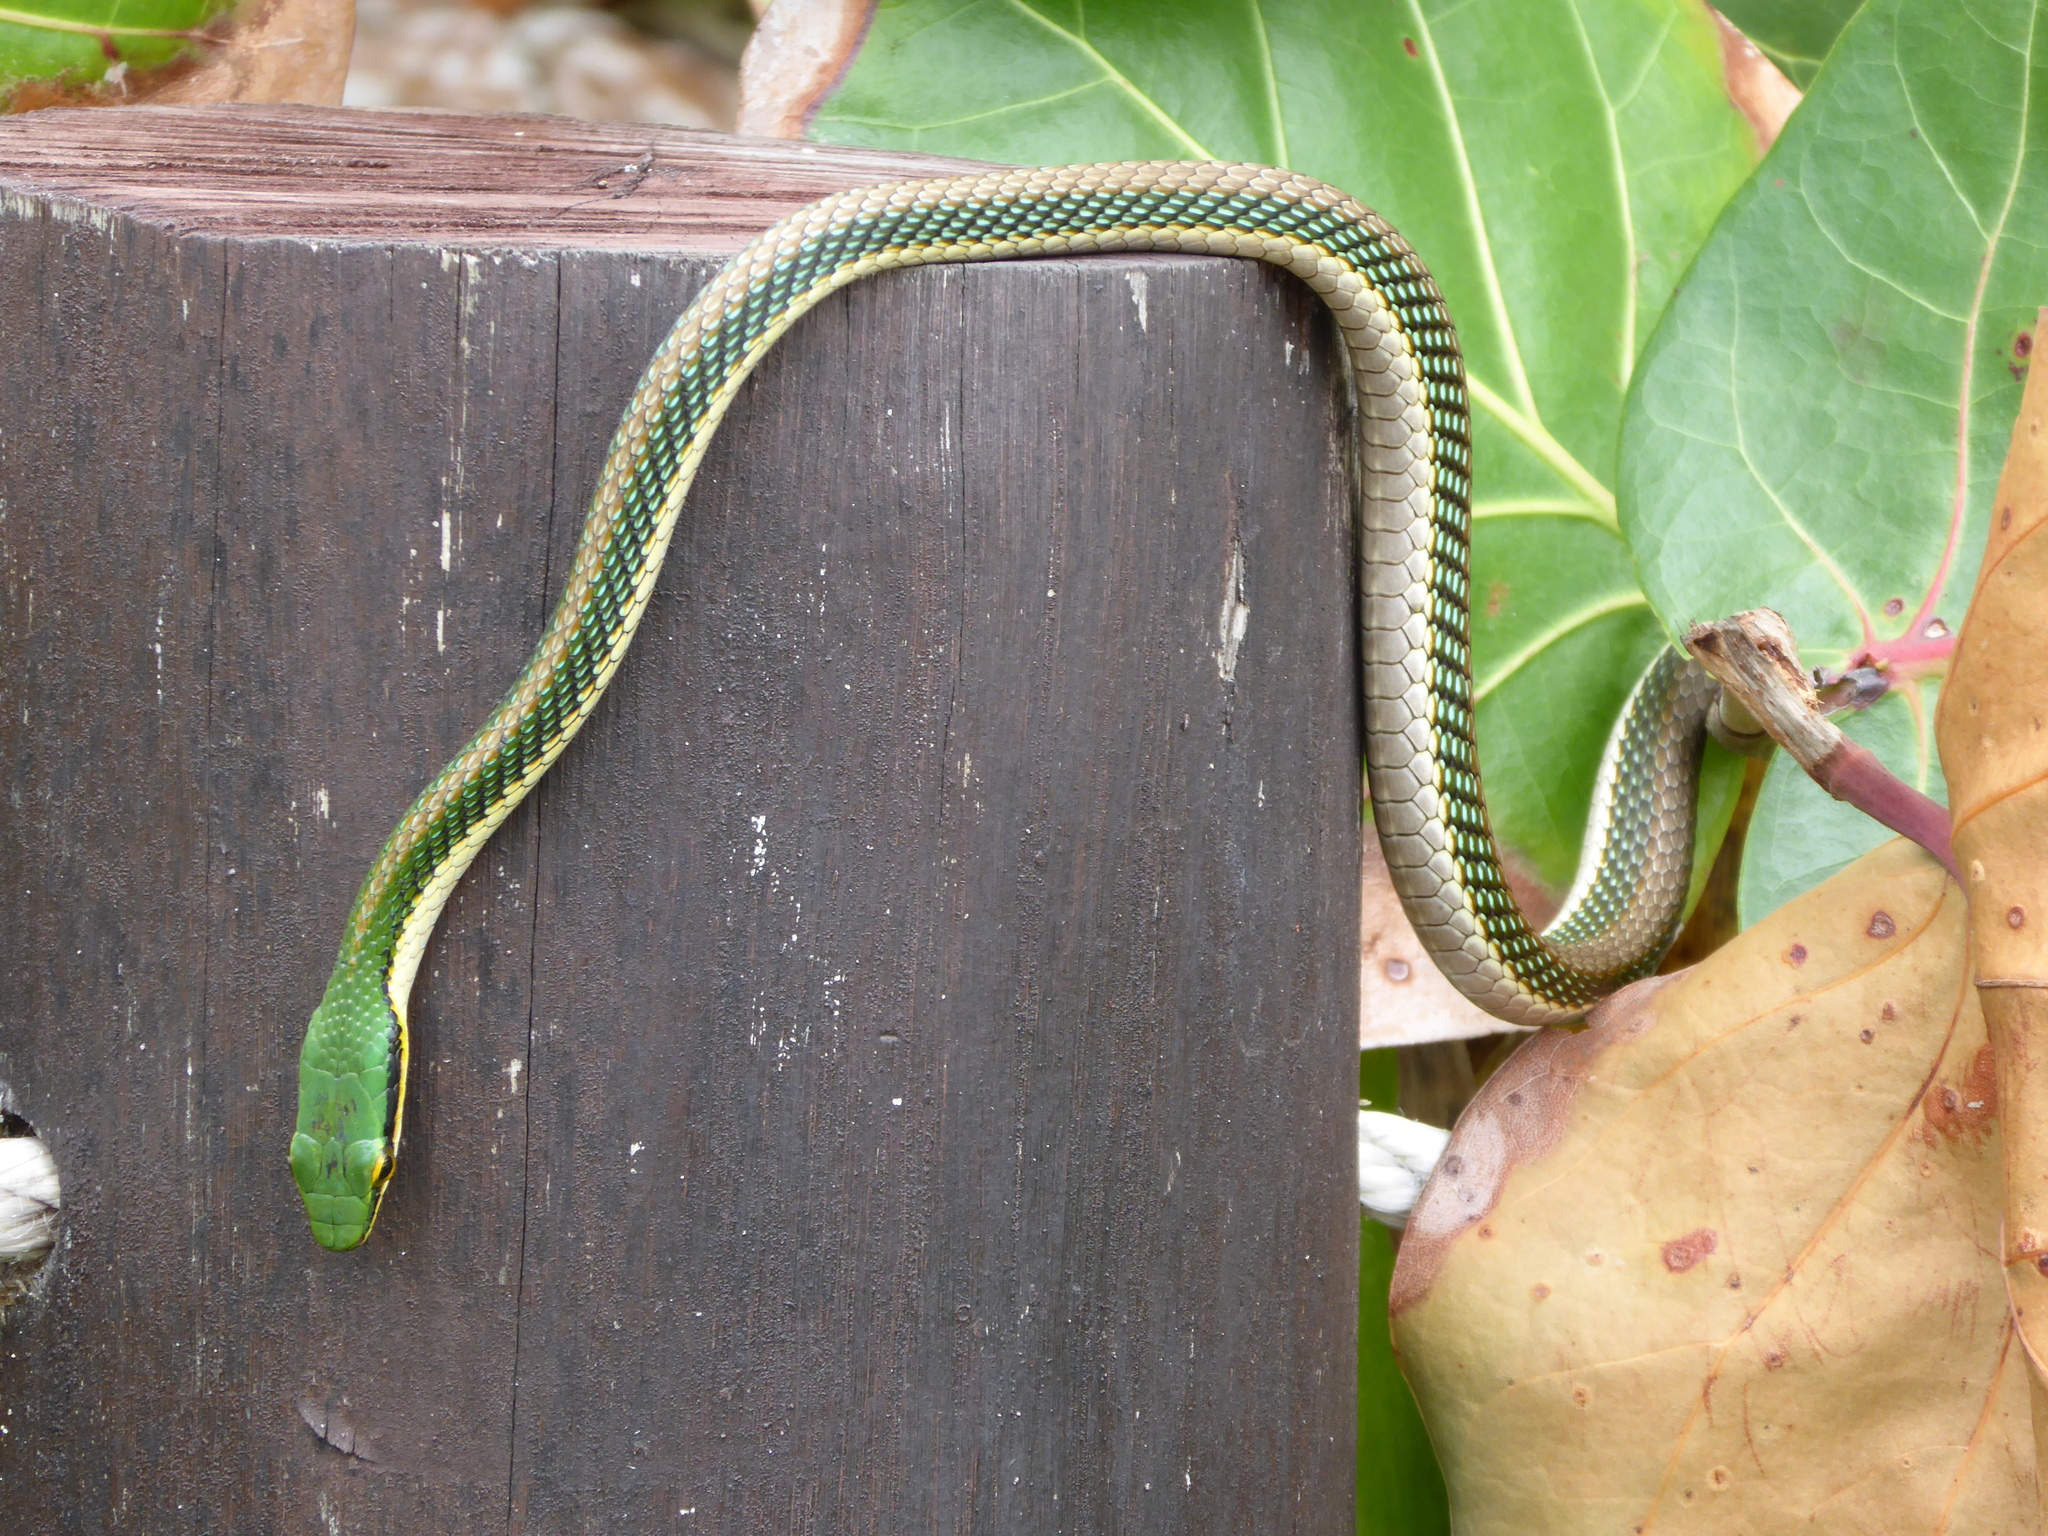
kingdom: Animalia
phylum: Chordata
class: Squamata
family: Colubridae
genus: Leptophis
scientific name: Leptophis mexicanus
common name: Mexican parrot snake
